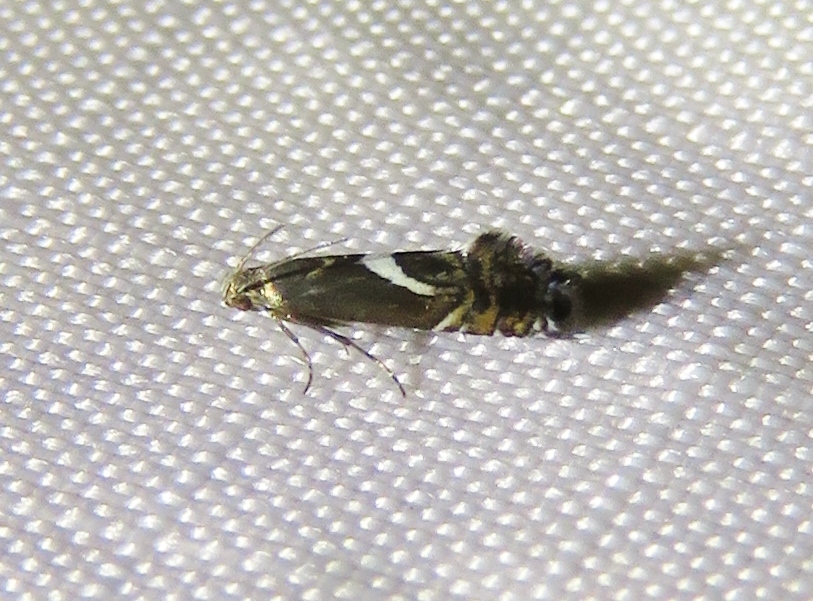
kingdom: Animalia
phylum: Arthropoda
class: Insecta
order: Lepidoptera
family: Glyphipterigidae
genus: Glyphipterix
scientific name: Glyphipterix Diploschizia impigritella
